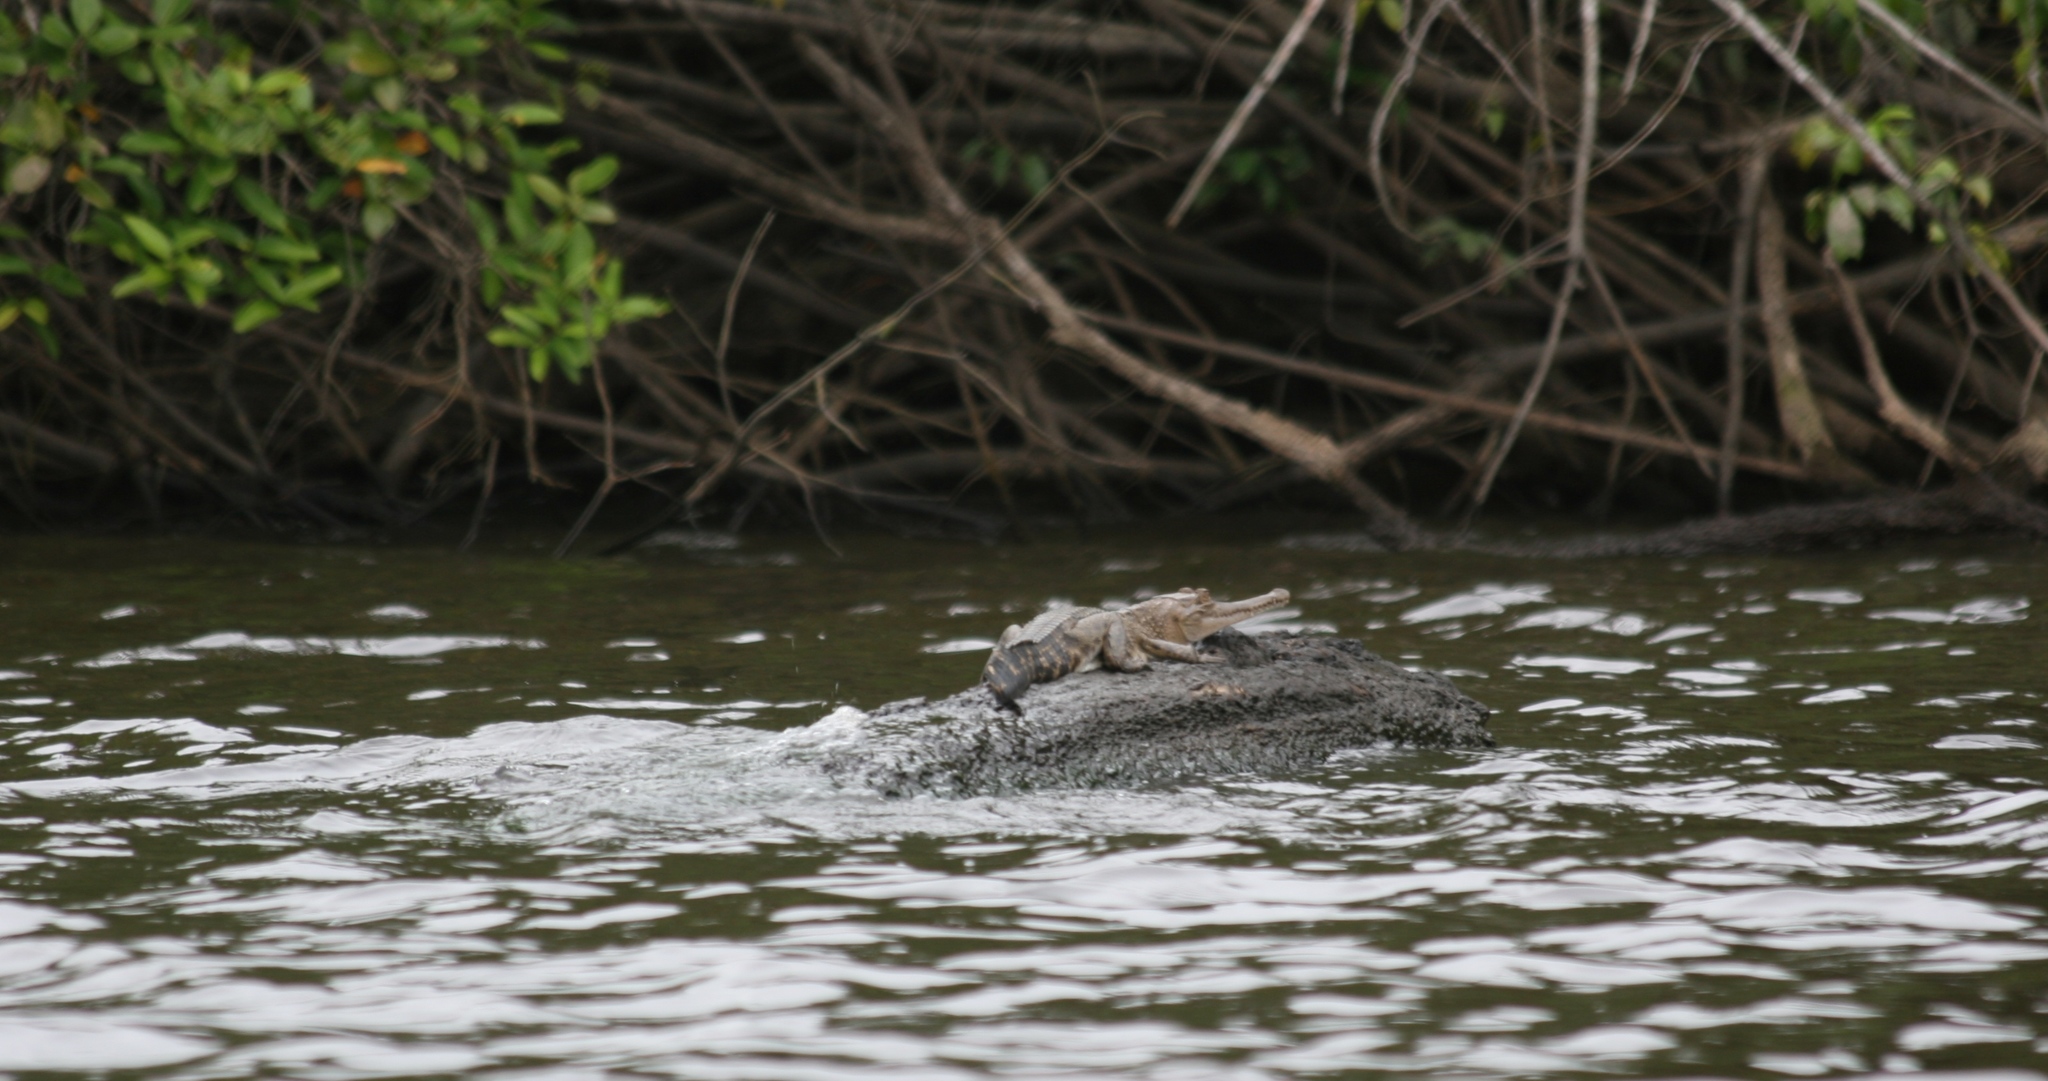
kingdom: Animalia
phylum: Chordata
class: Crocodylia
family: Crocodylidae
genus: Mecistops
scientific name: Mecistops leptorhynchus
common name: Central african slender-snouted crocodile
